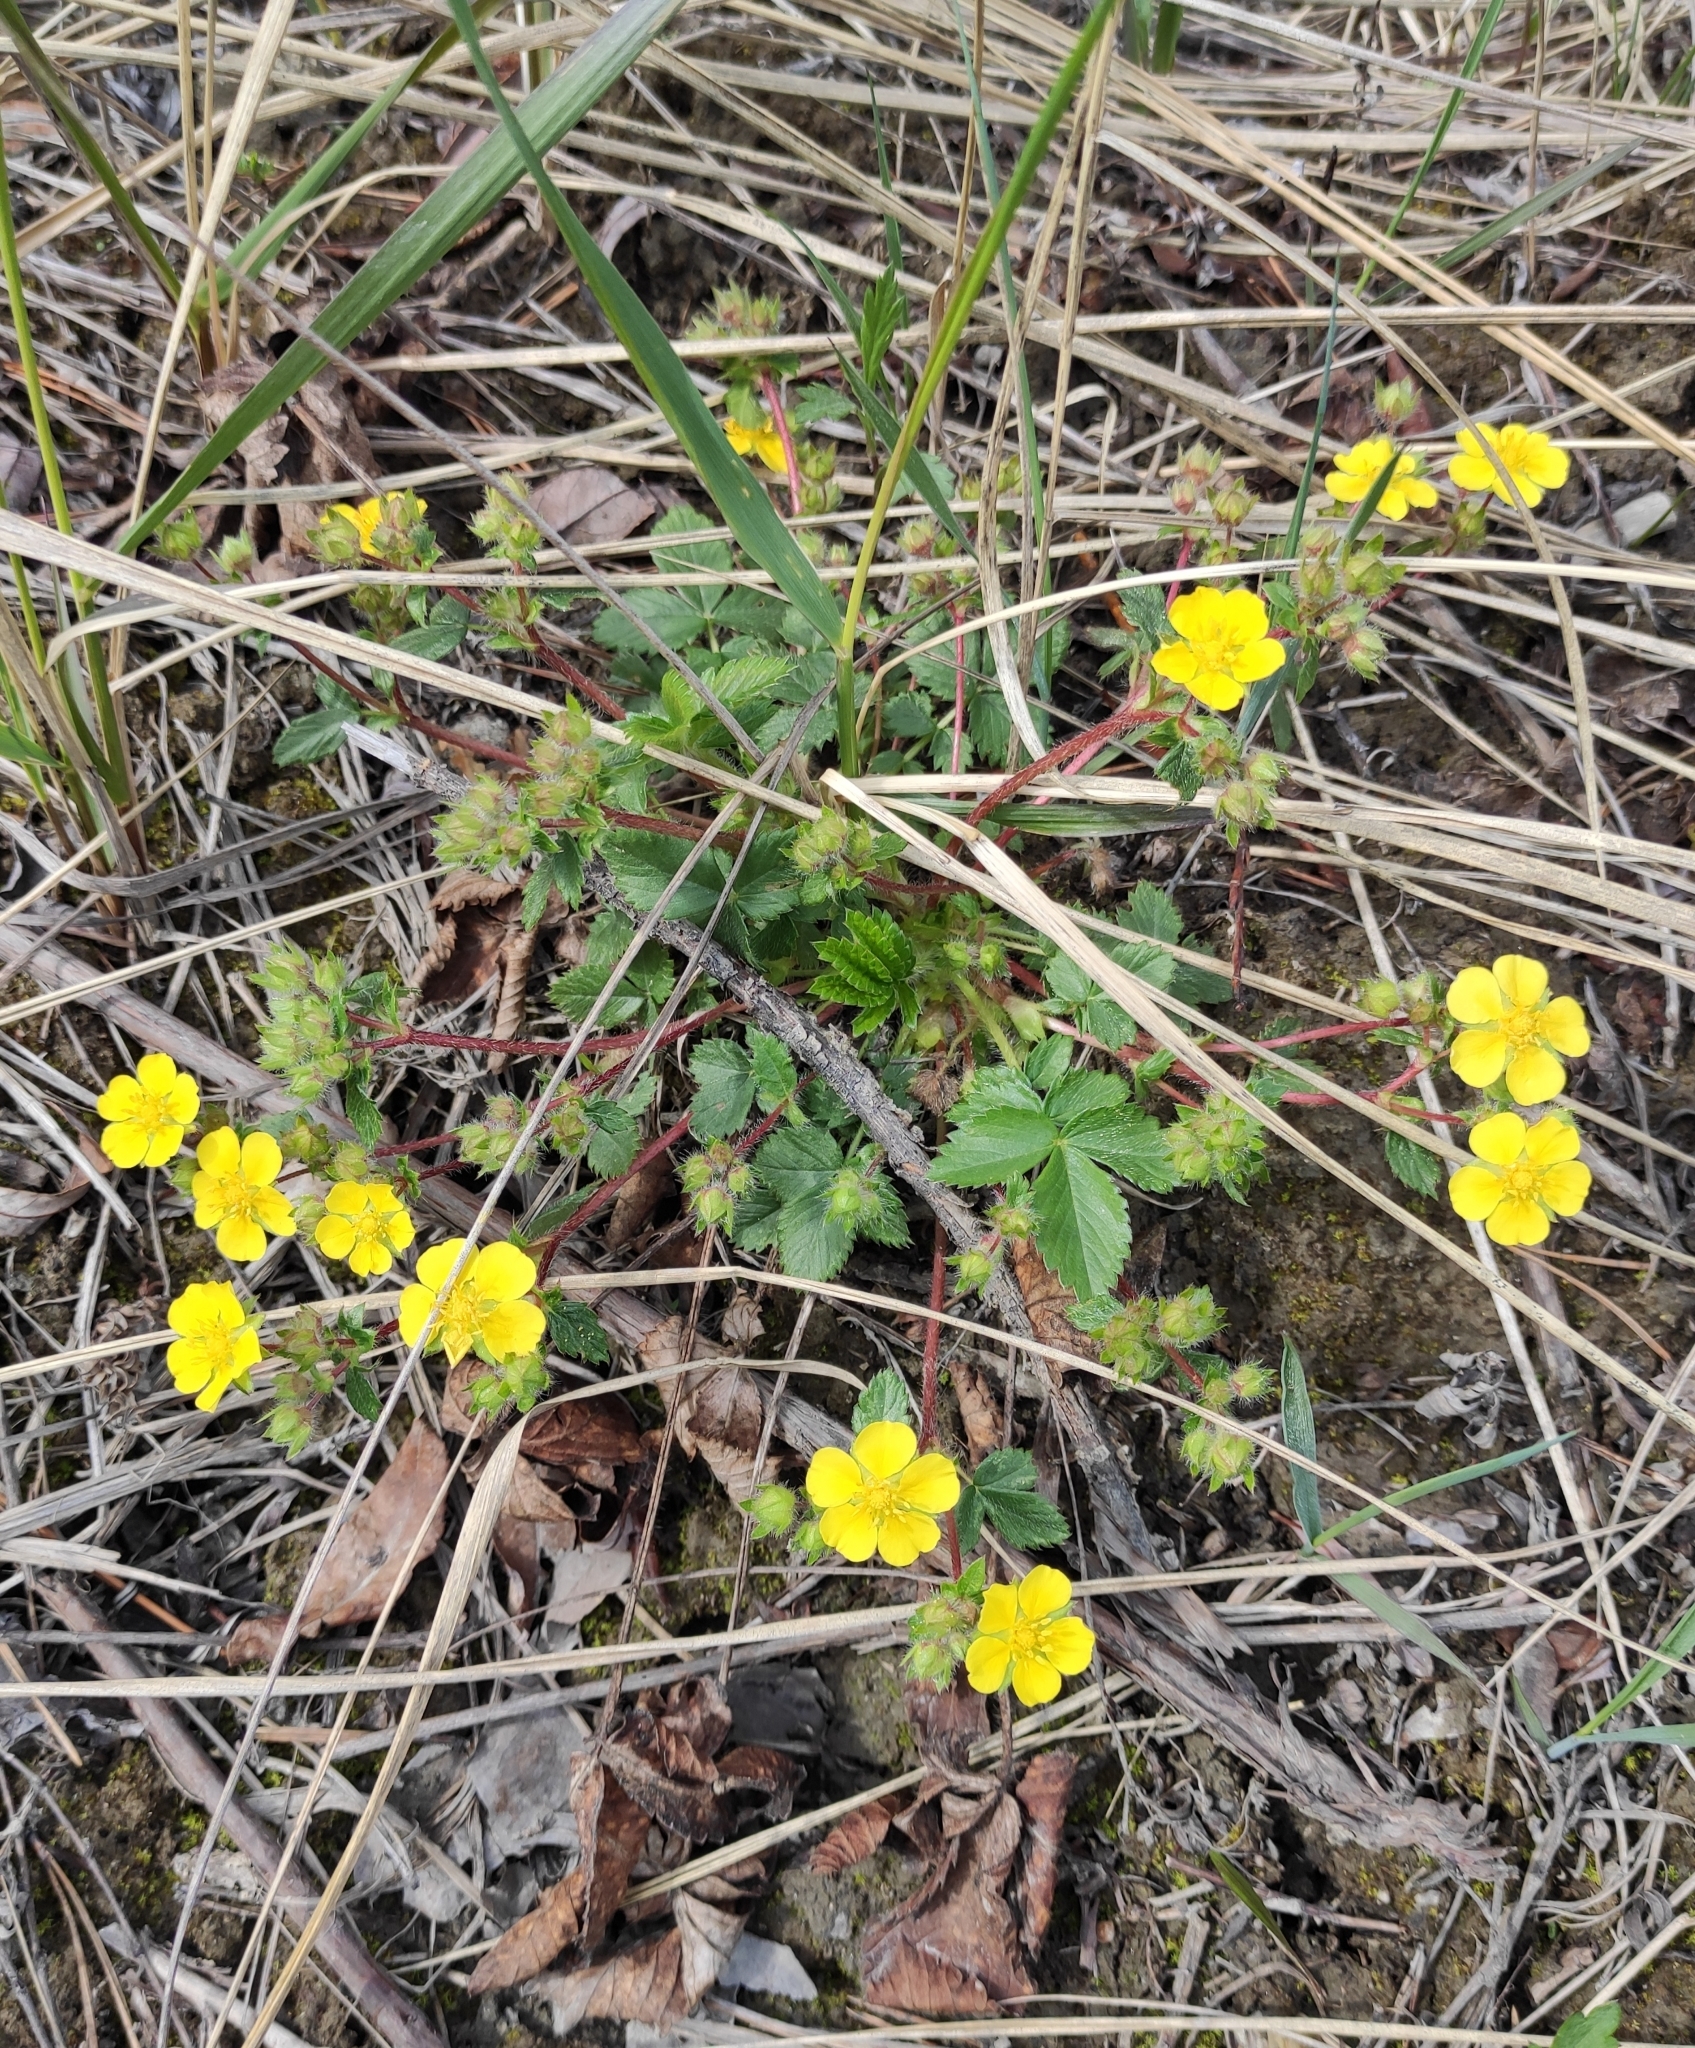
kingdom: Plantae
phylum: Tracheophyta
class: Magnoliopsida
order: Rosales
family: Rosaceae
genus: Potentilla
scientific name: Potentilla fragarioides
